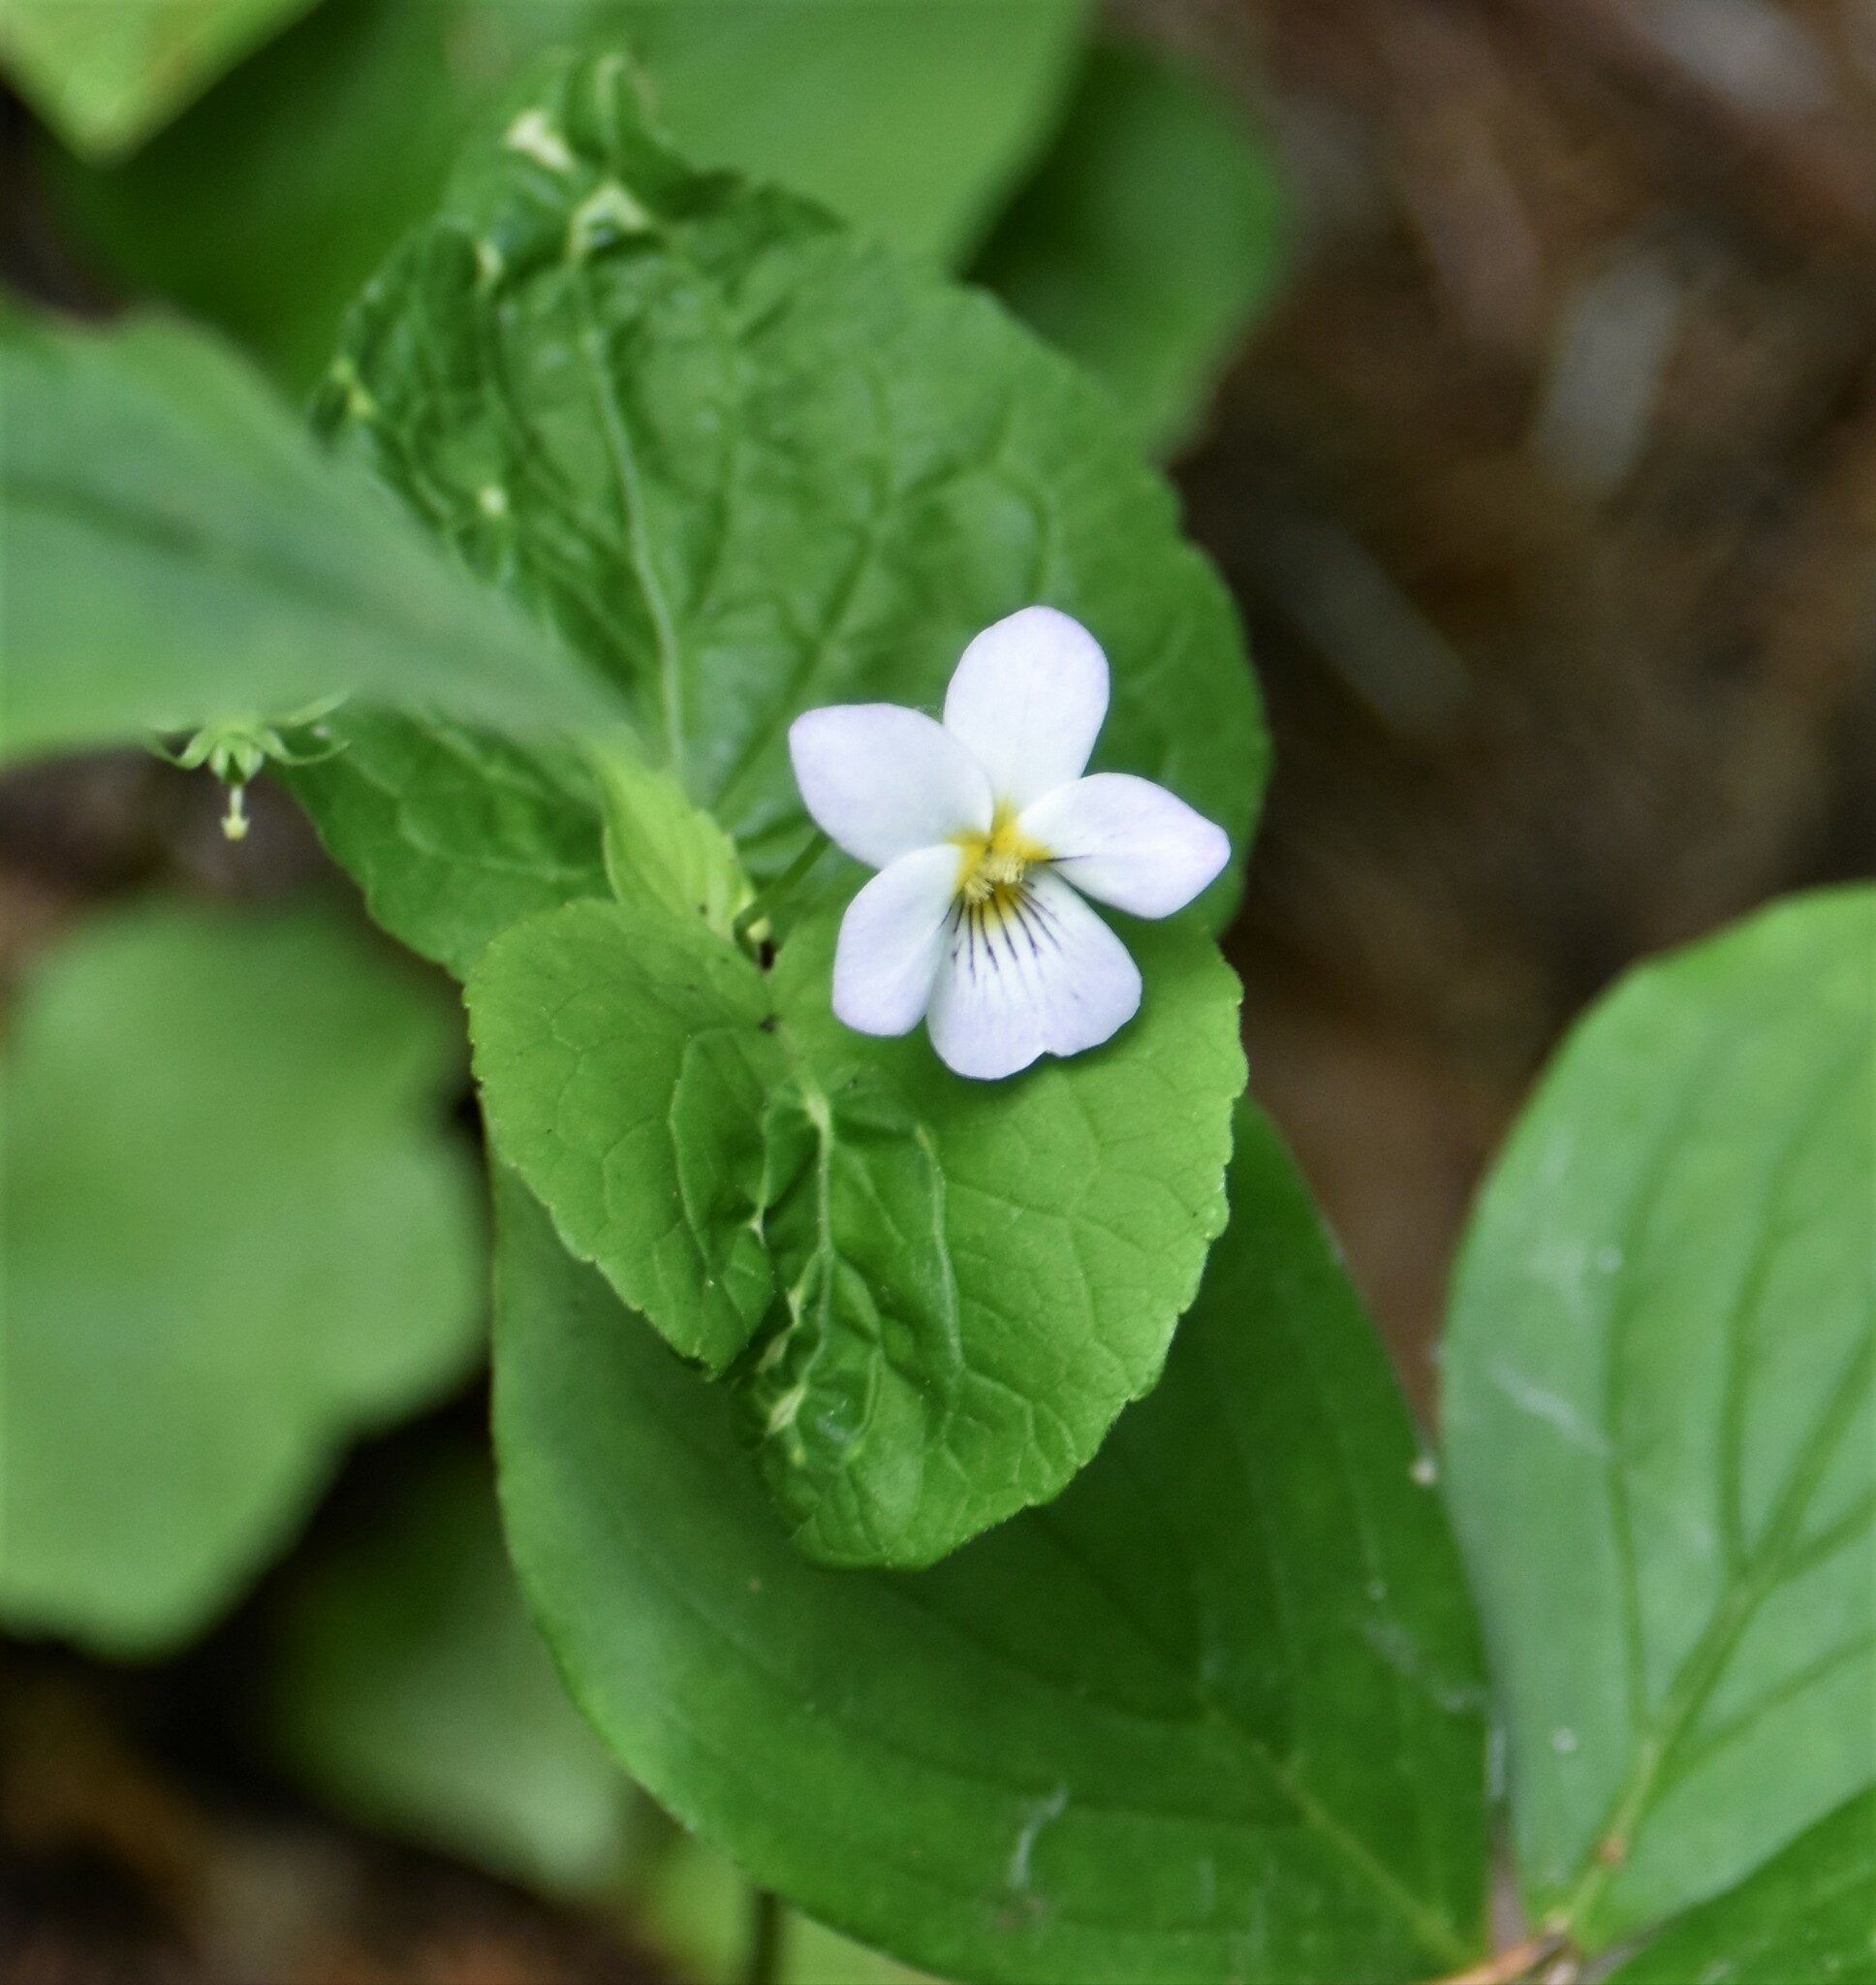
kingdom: Plantae
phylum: Tracheophyta
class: Magnoliopsida
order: Malpighiales
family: Violaceae
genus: Viola
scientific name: Viola canadensis
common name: Canada violet
